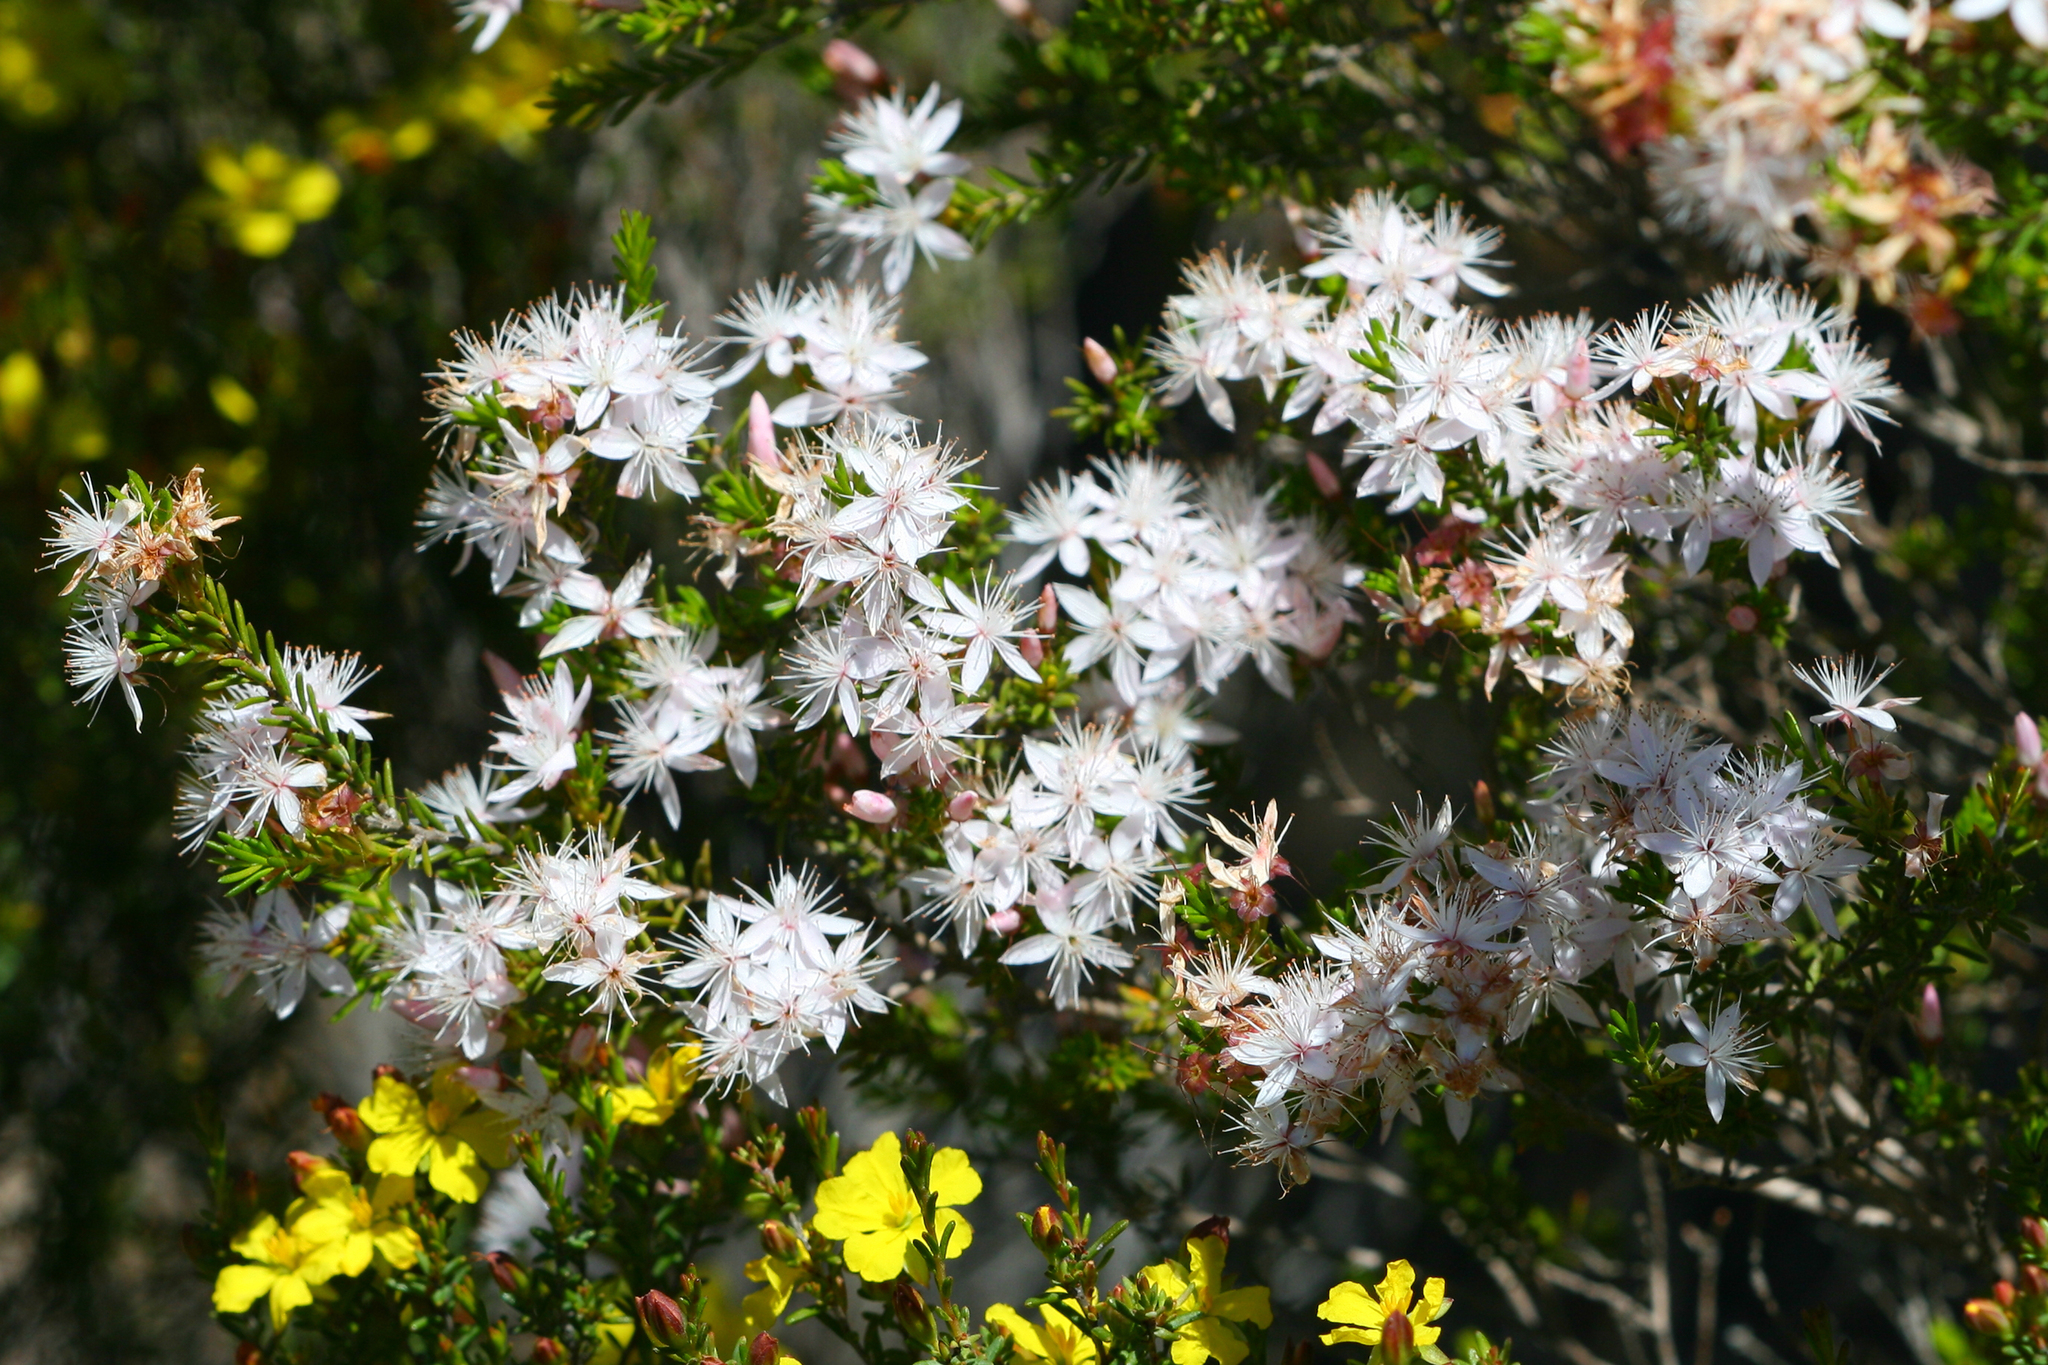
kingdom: Plantae
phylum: Tracheophyta
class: Magnoliopsida
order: Myrtales
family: Myrtaceae
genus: Calytrix
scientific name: Calytrix tetragona
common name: Common fringe myrtle
